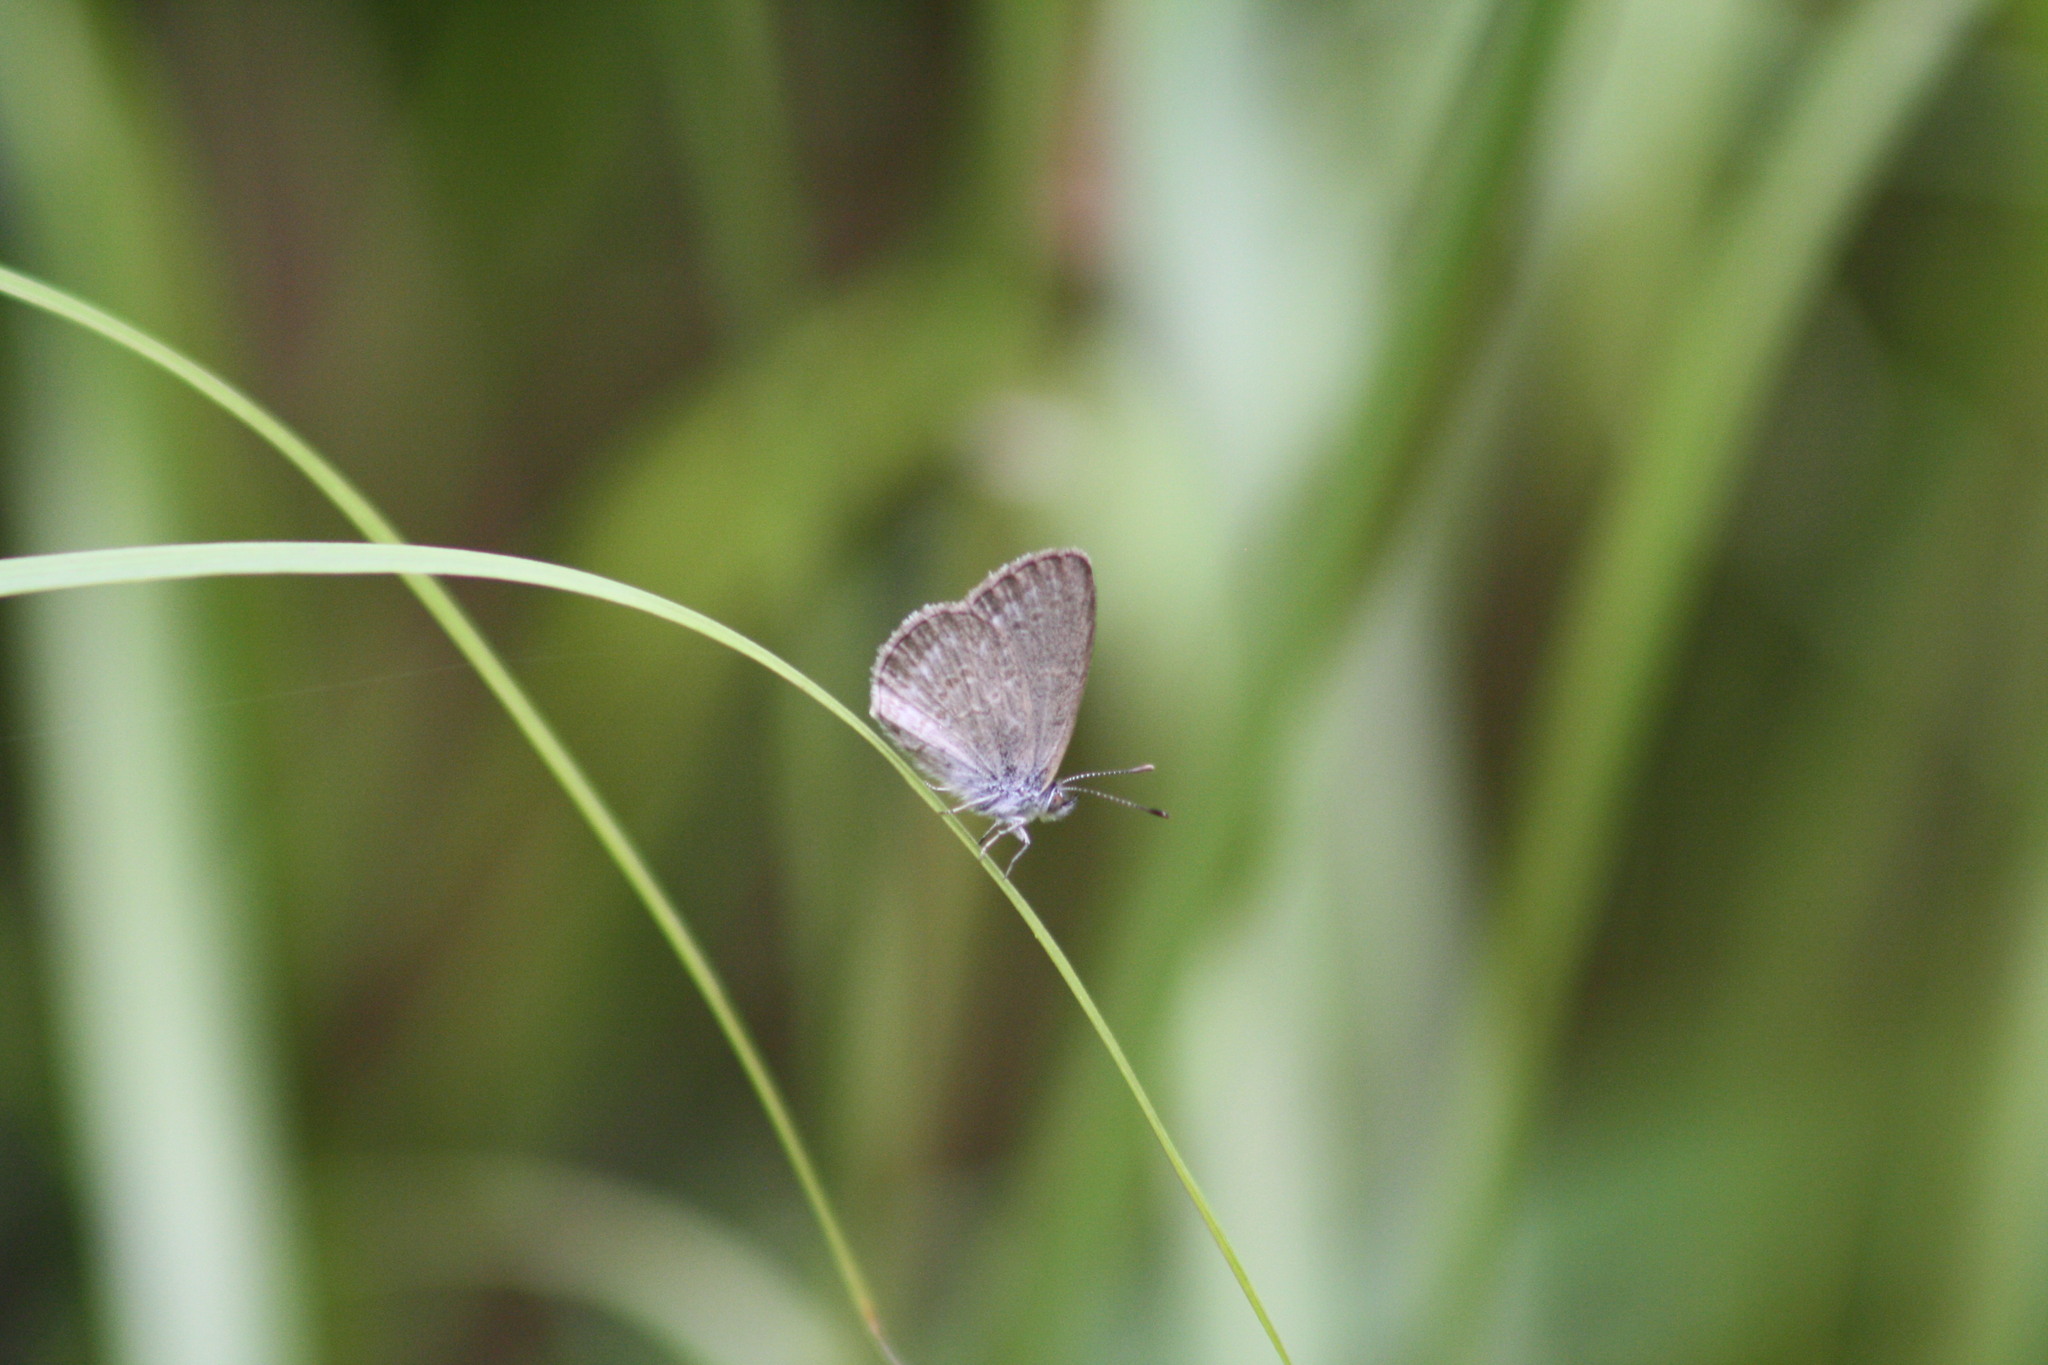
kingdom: Animalia
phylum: Arthropoda
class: Insecta
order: Lepidoptera
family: Lycaenidae
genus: Zizina
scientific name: Zizina labradus
